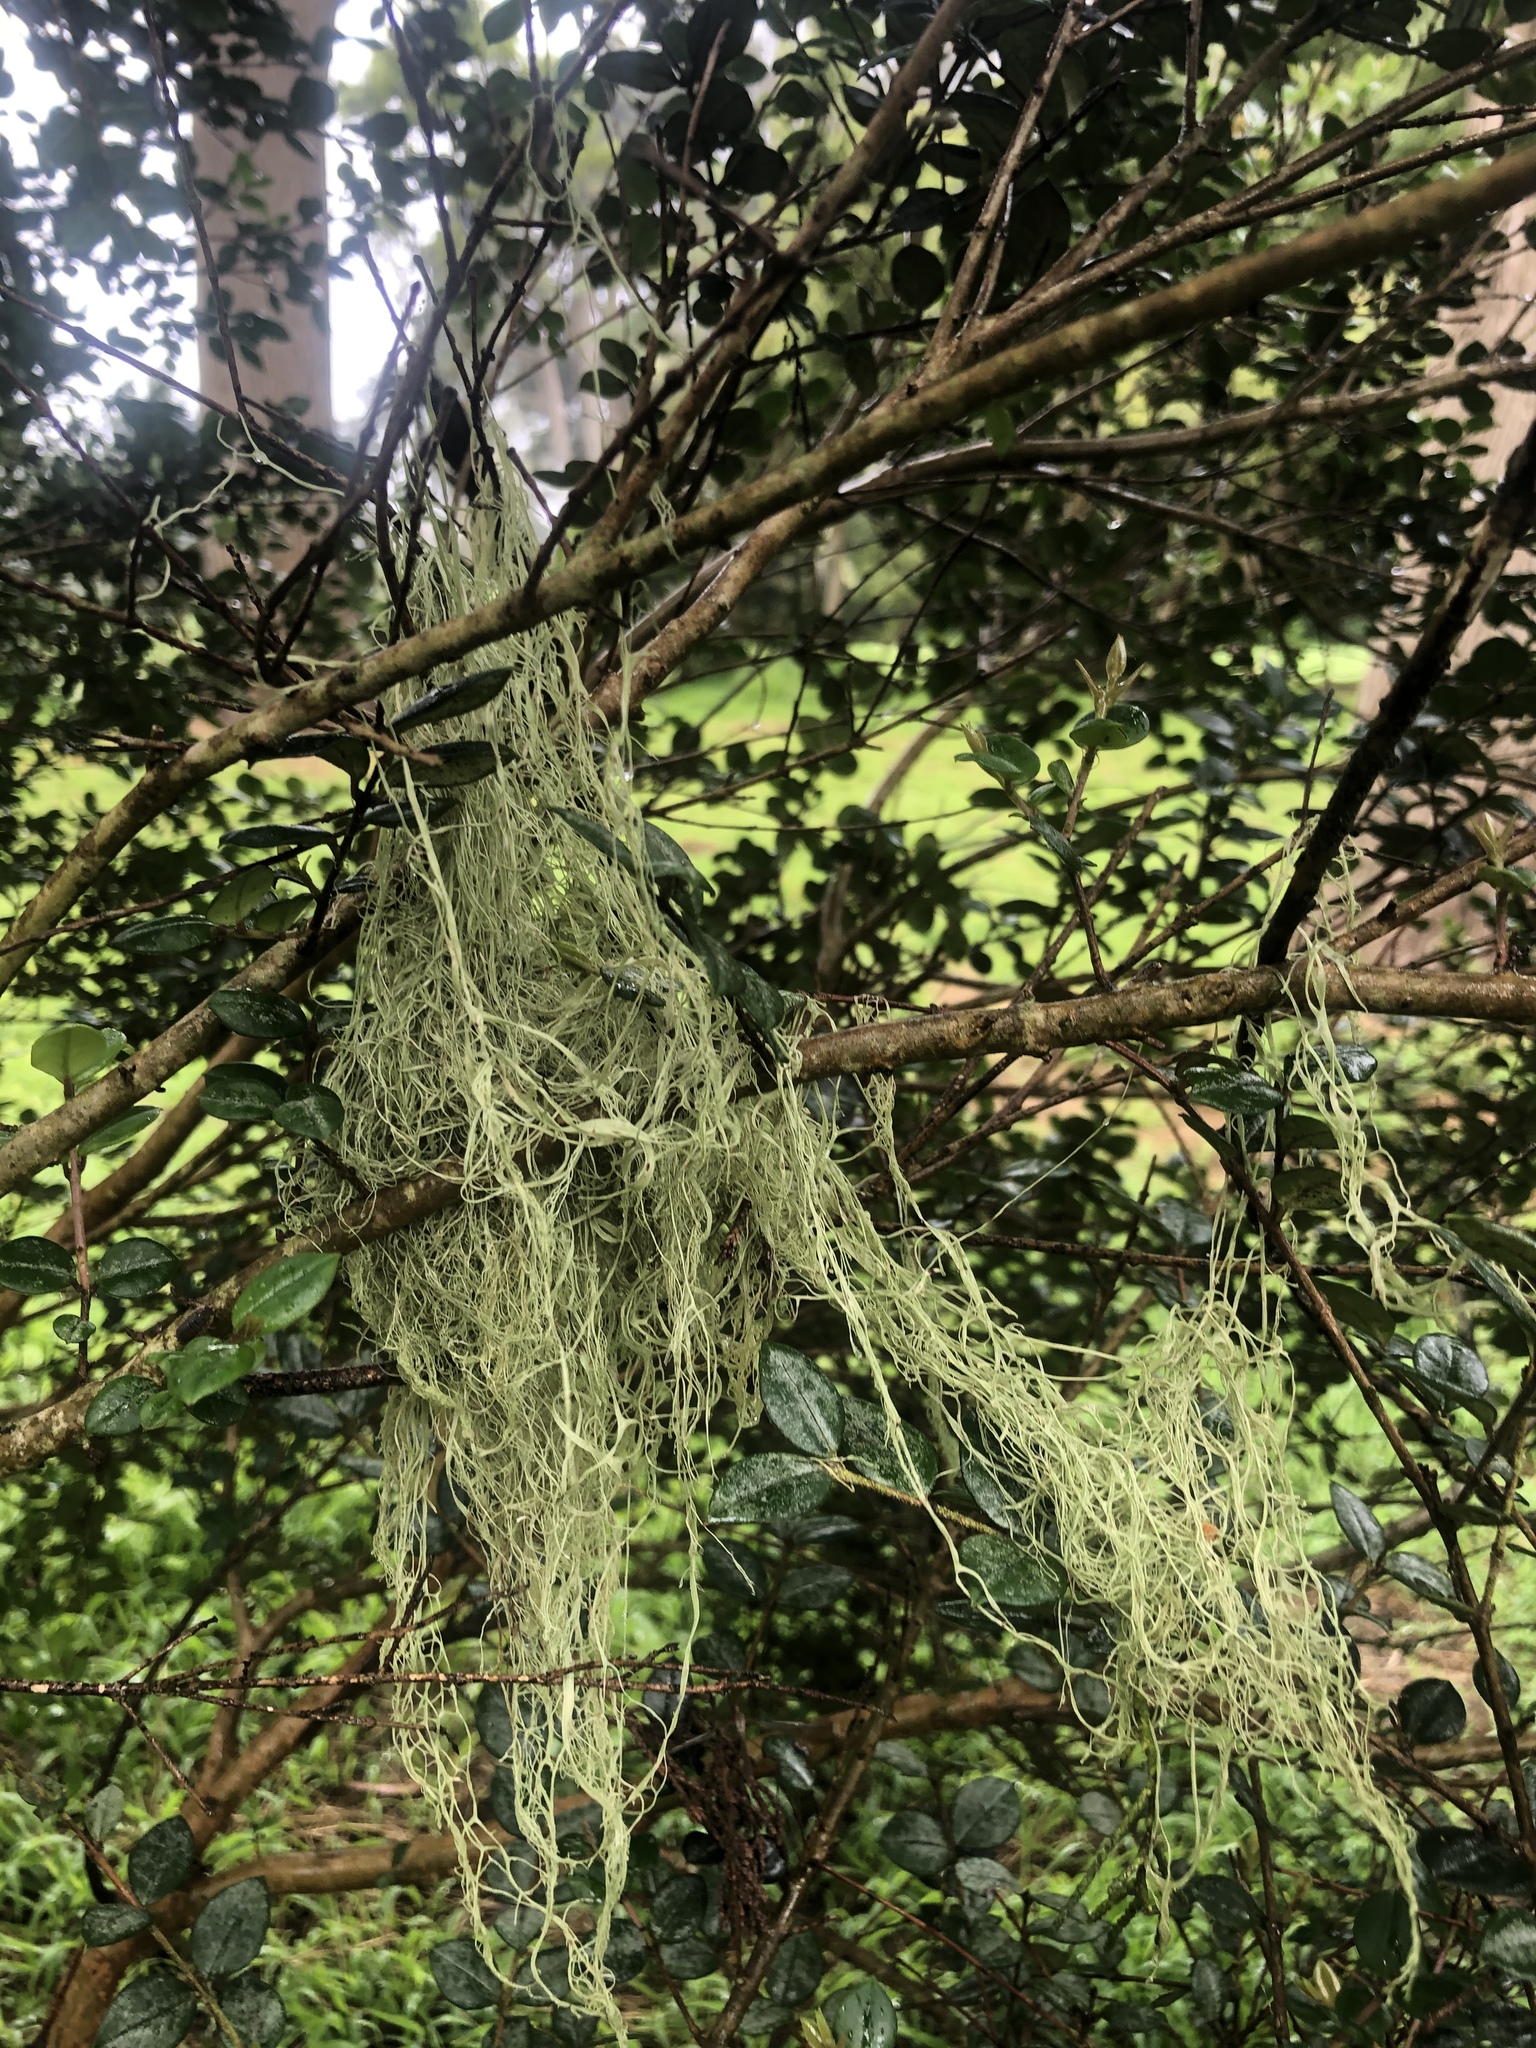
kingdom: Fungi
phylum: Ascomycota
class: Lecanoromycetes
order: Lecanorales
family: Ramalinaceae
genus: Ramalina
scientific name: Ramalina menziesii
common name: Lace lichen
